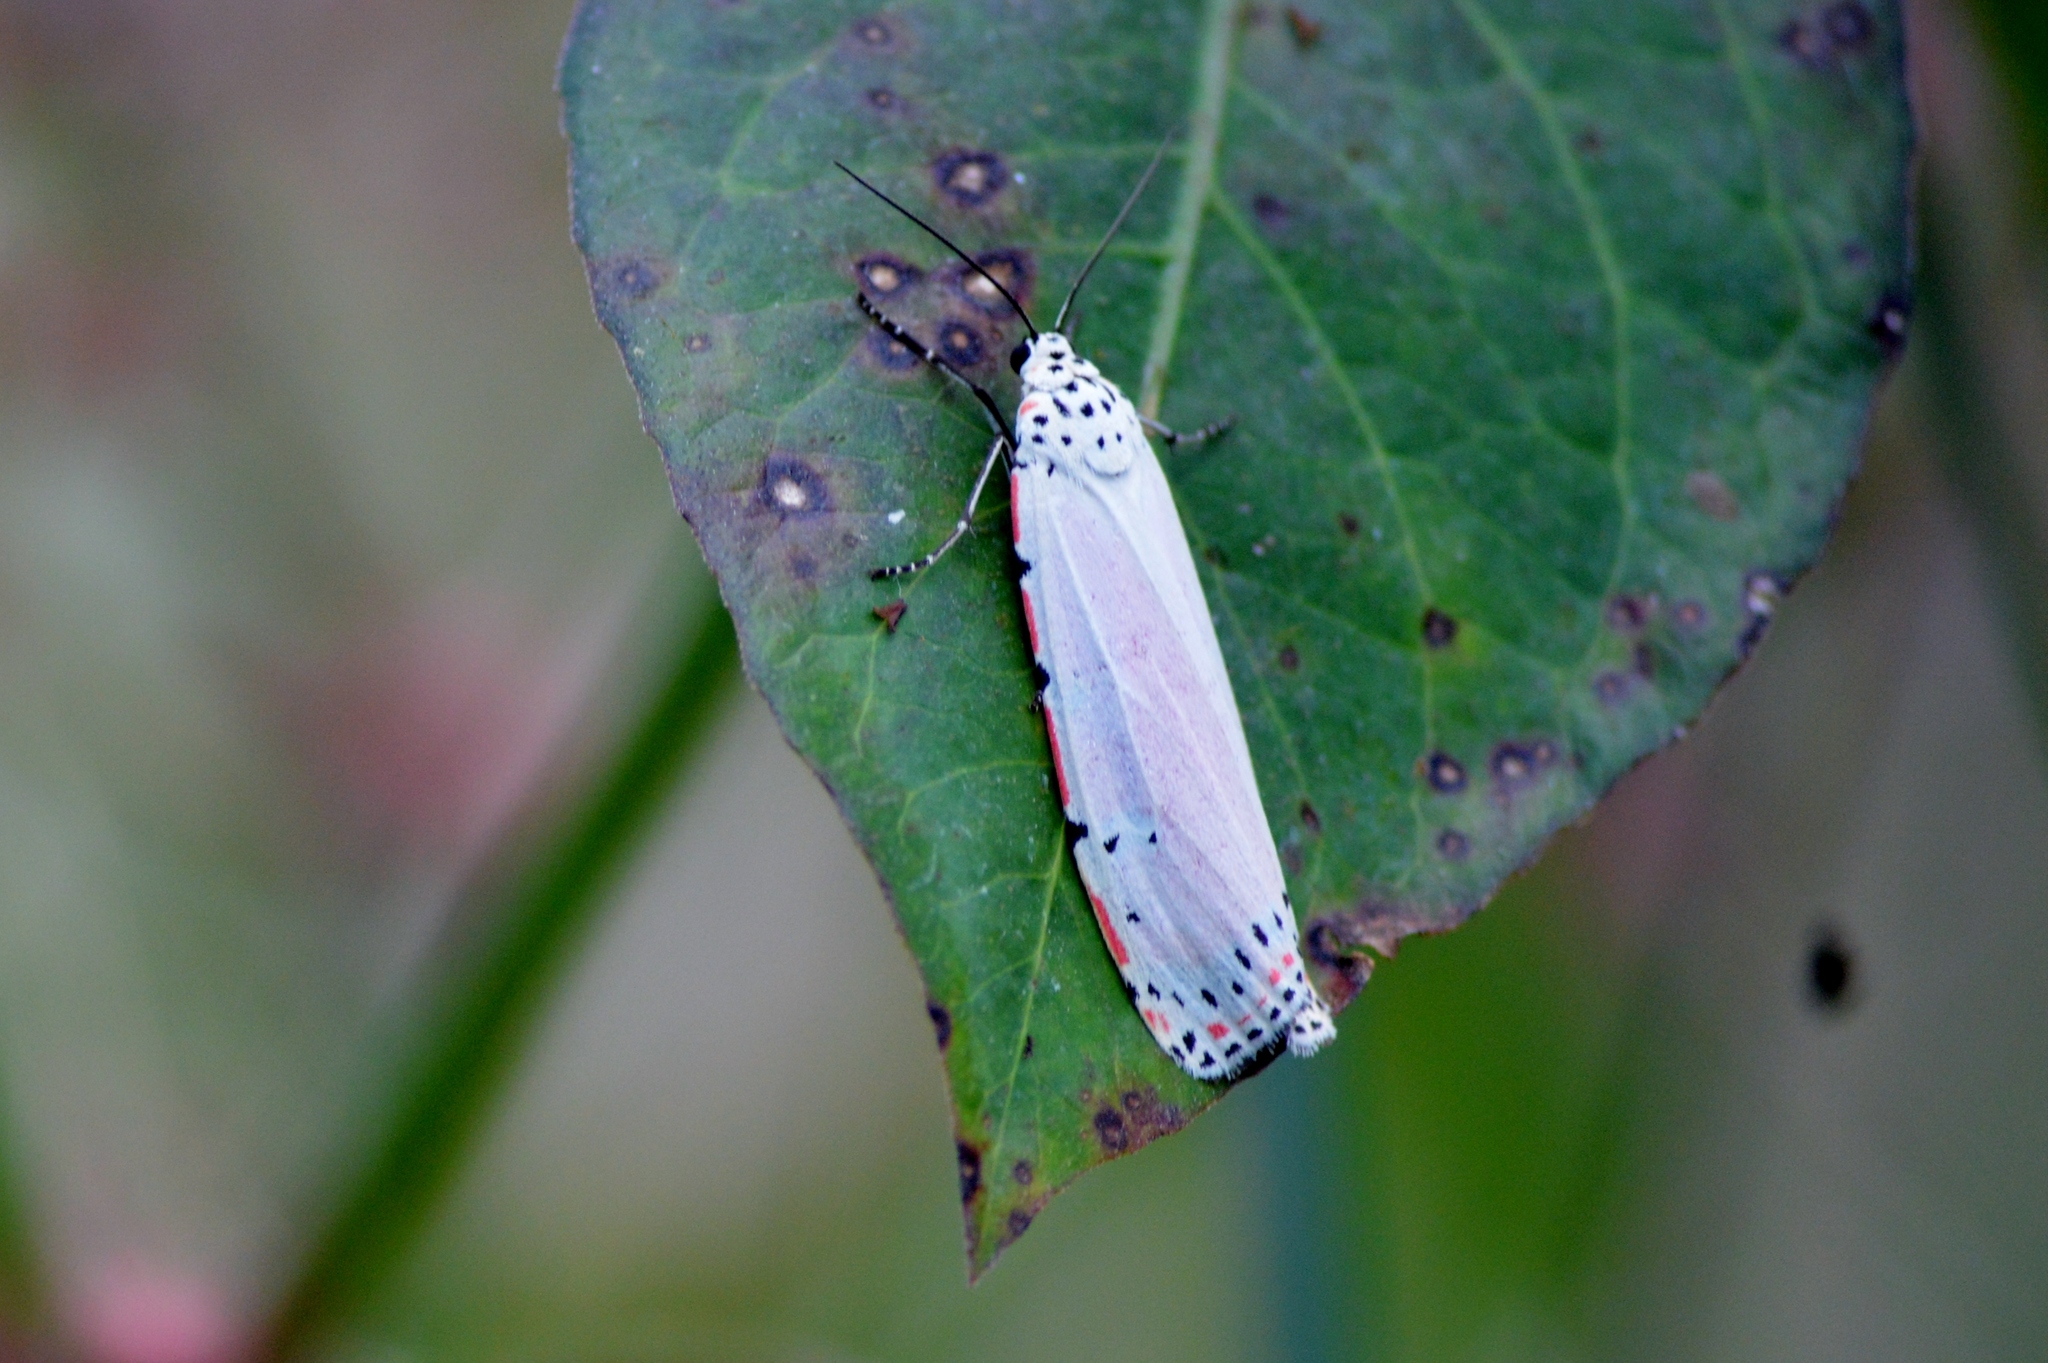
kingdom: Animalia
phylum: Arthropoda
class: Insecta
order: Lepidoptera
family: Erebidae
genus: Utetheisa
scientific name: Utetheisa ornatrix
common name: Beautiful utetheisa
